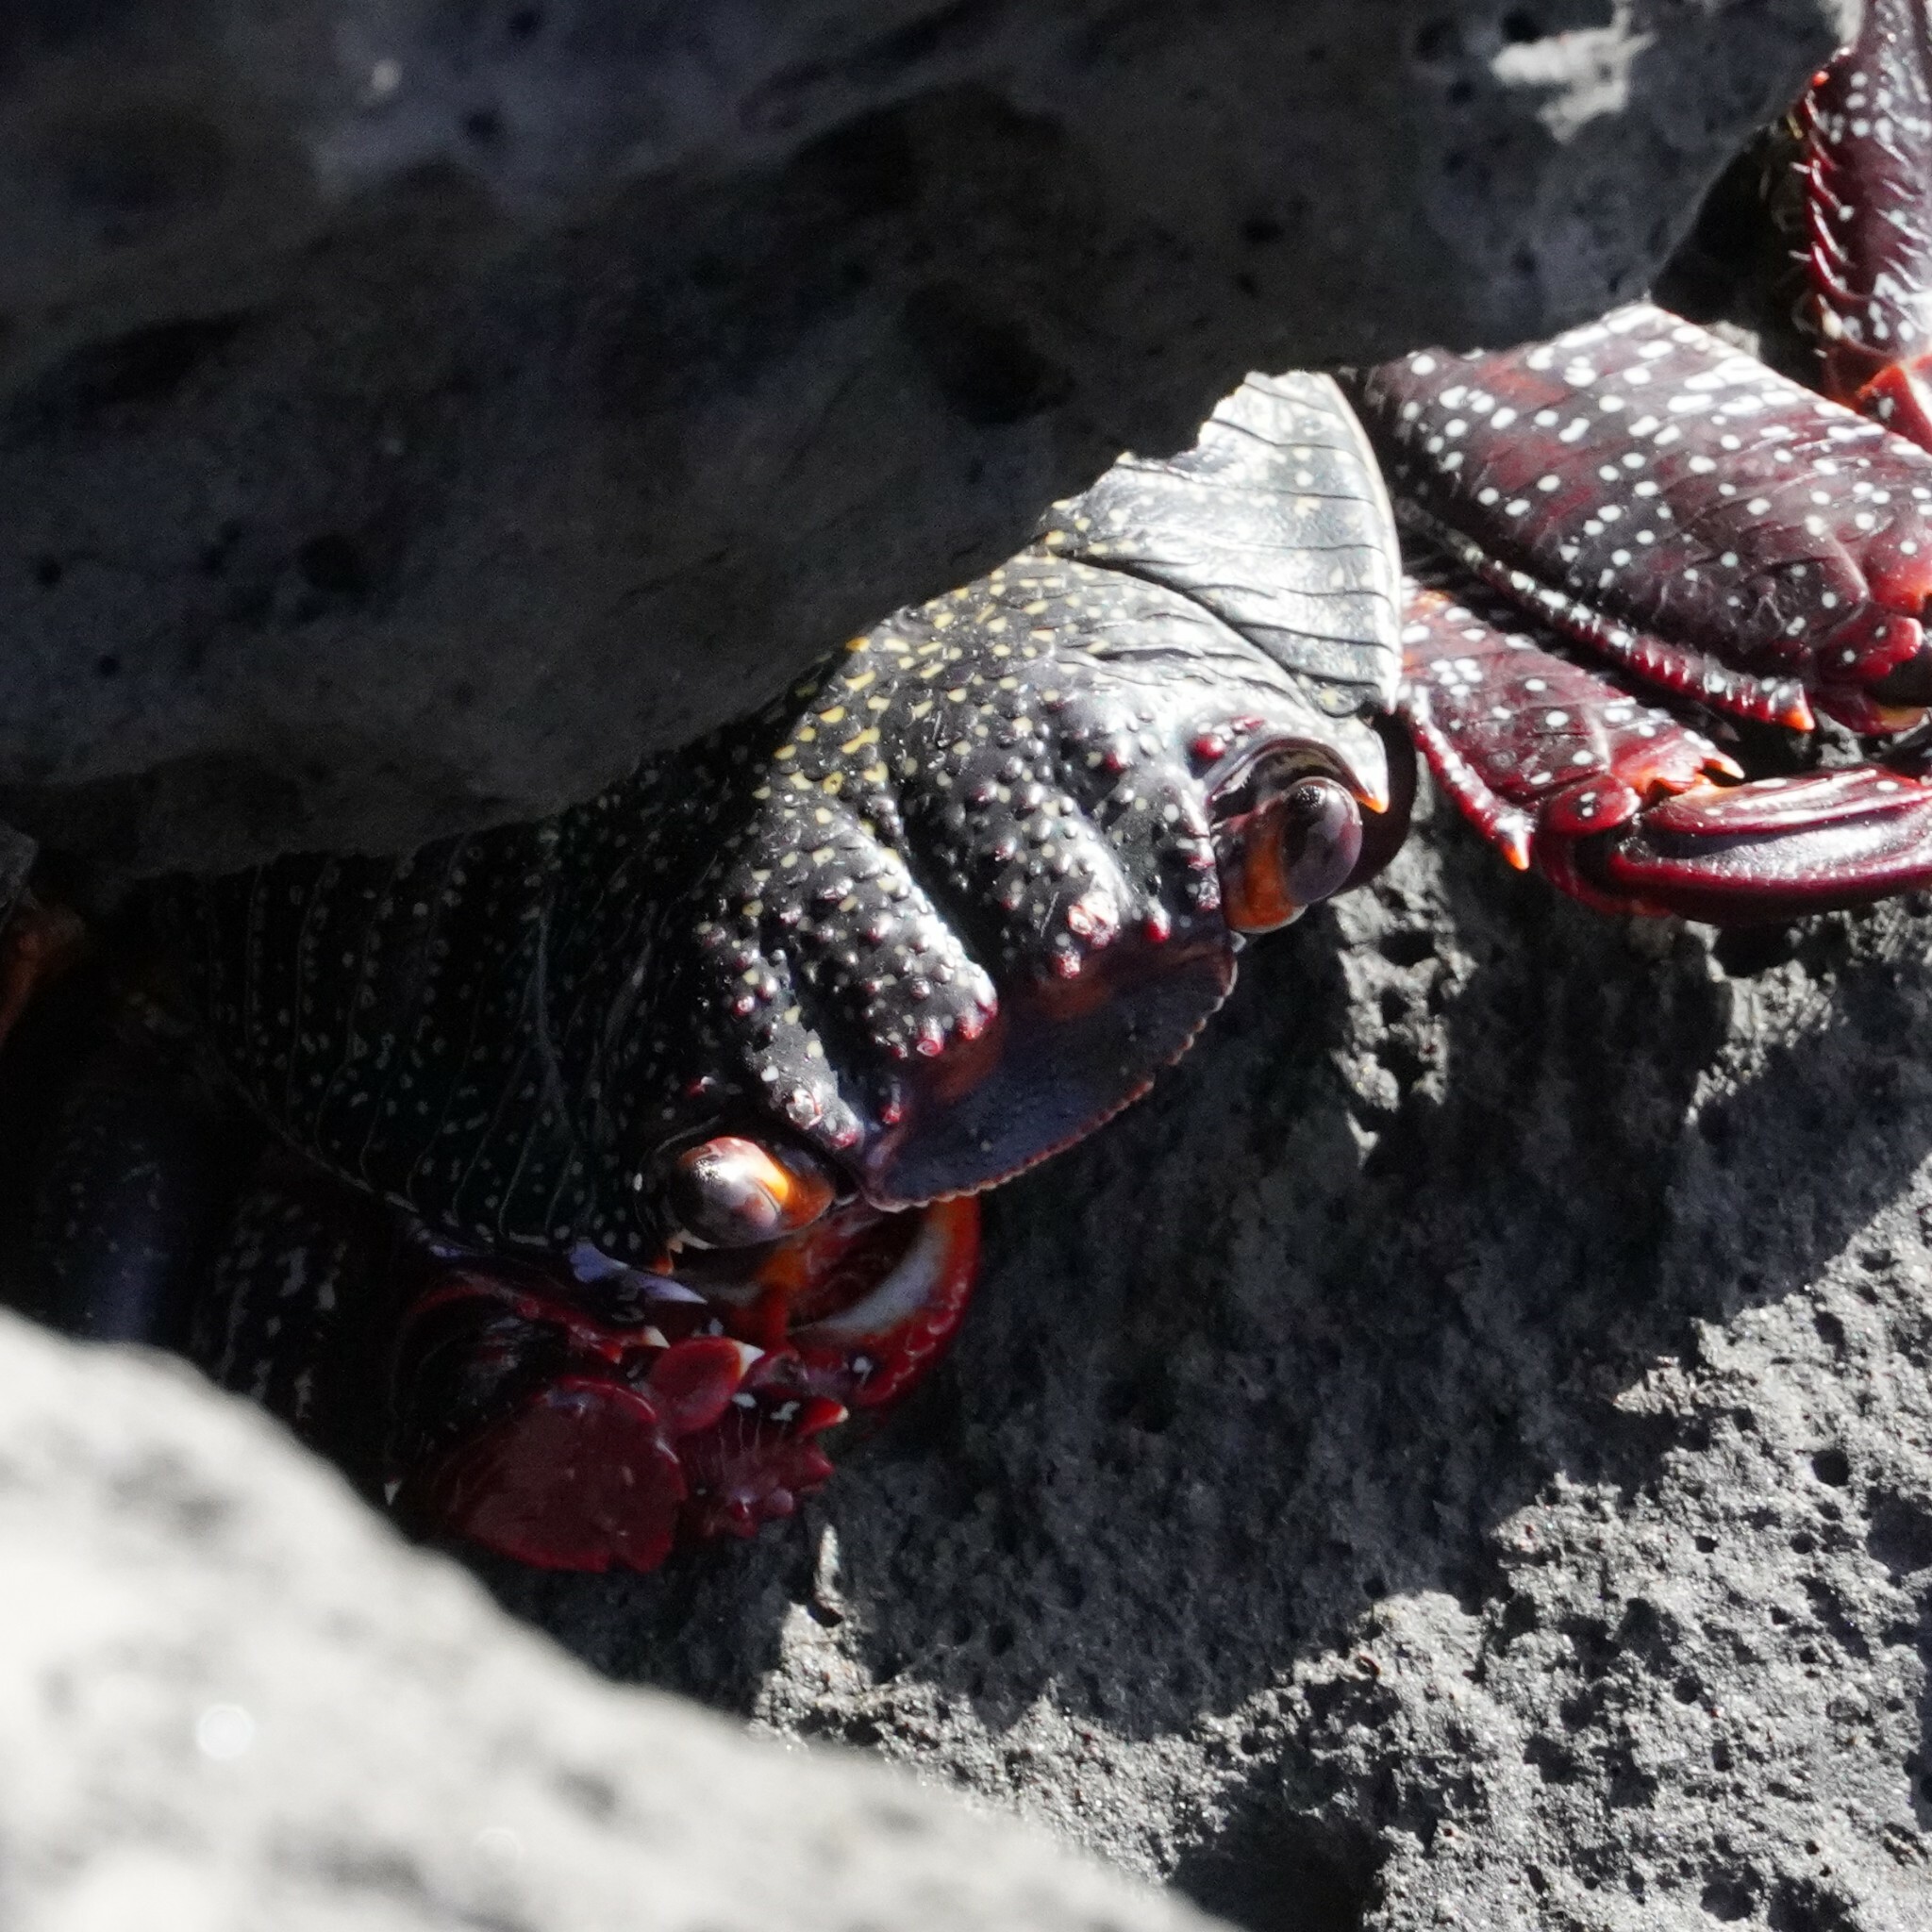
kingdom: Animalia
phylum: Arthropoda
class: Malacostraca
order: Decapoda
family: Grapsidae
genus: Grapsus
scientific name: Grapsus adscensionis
